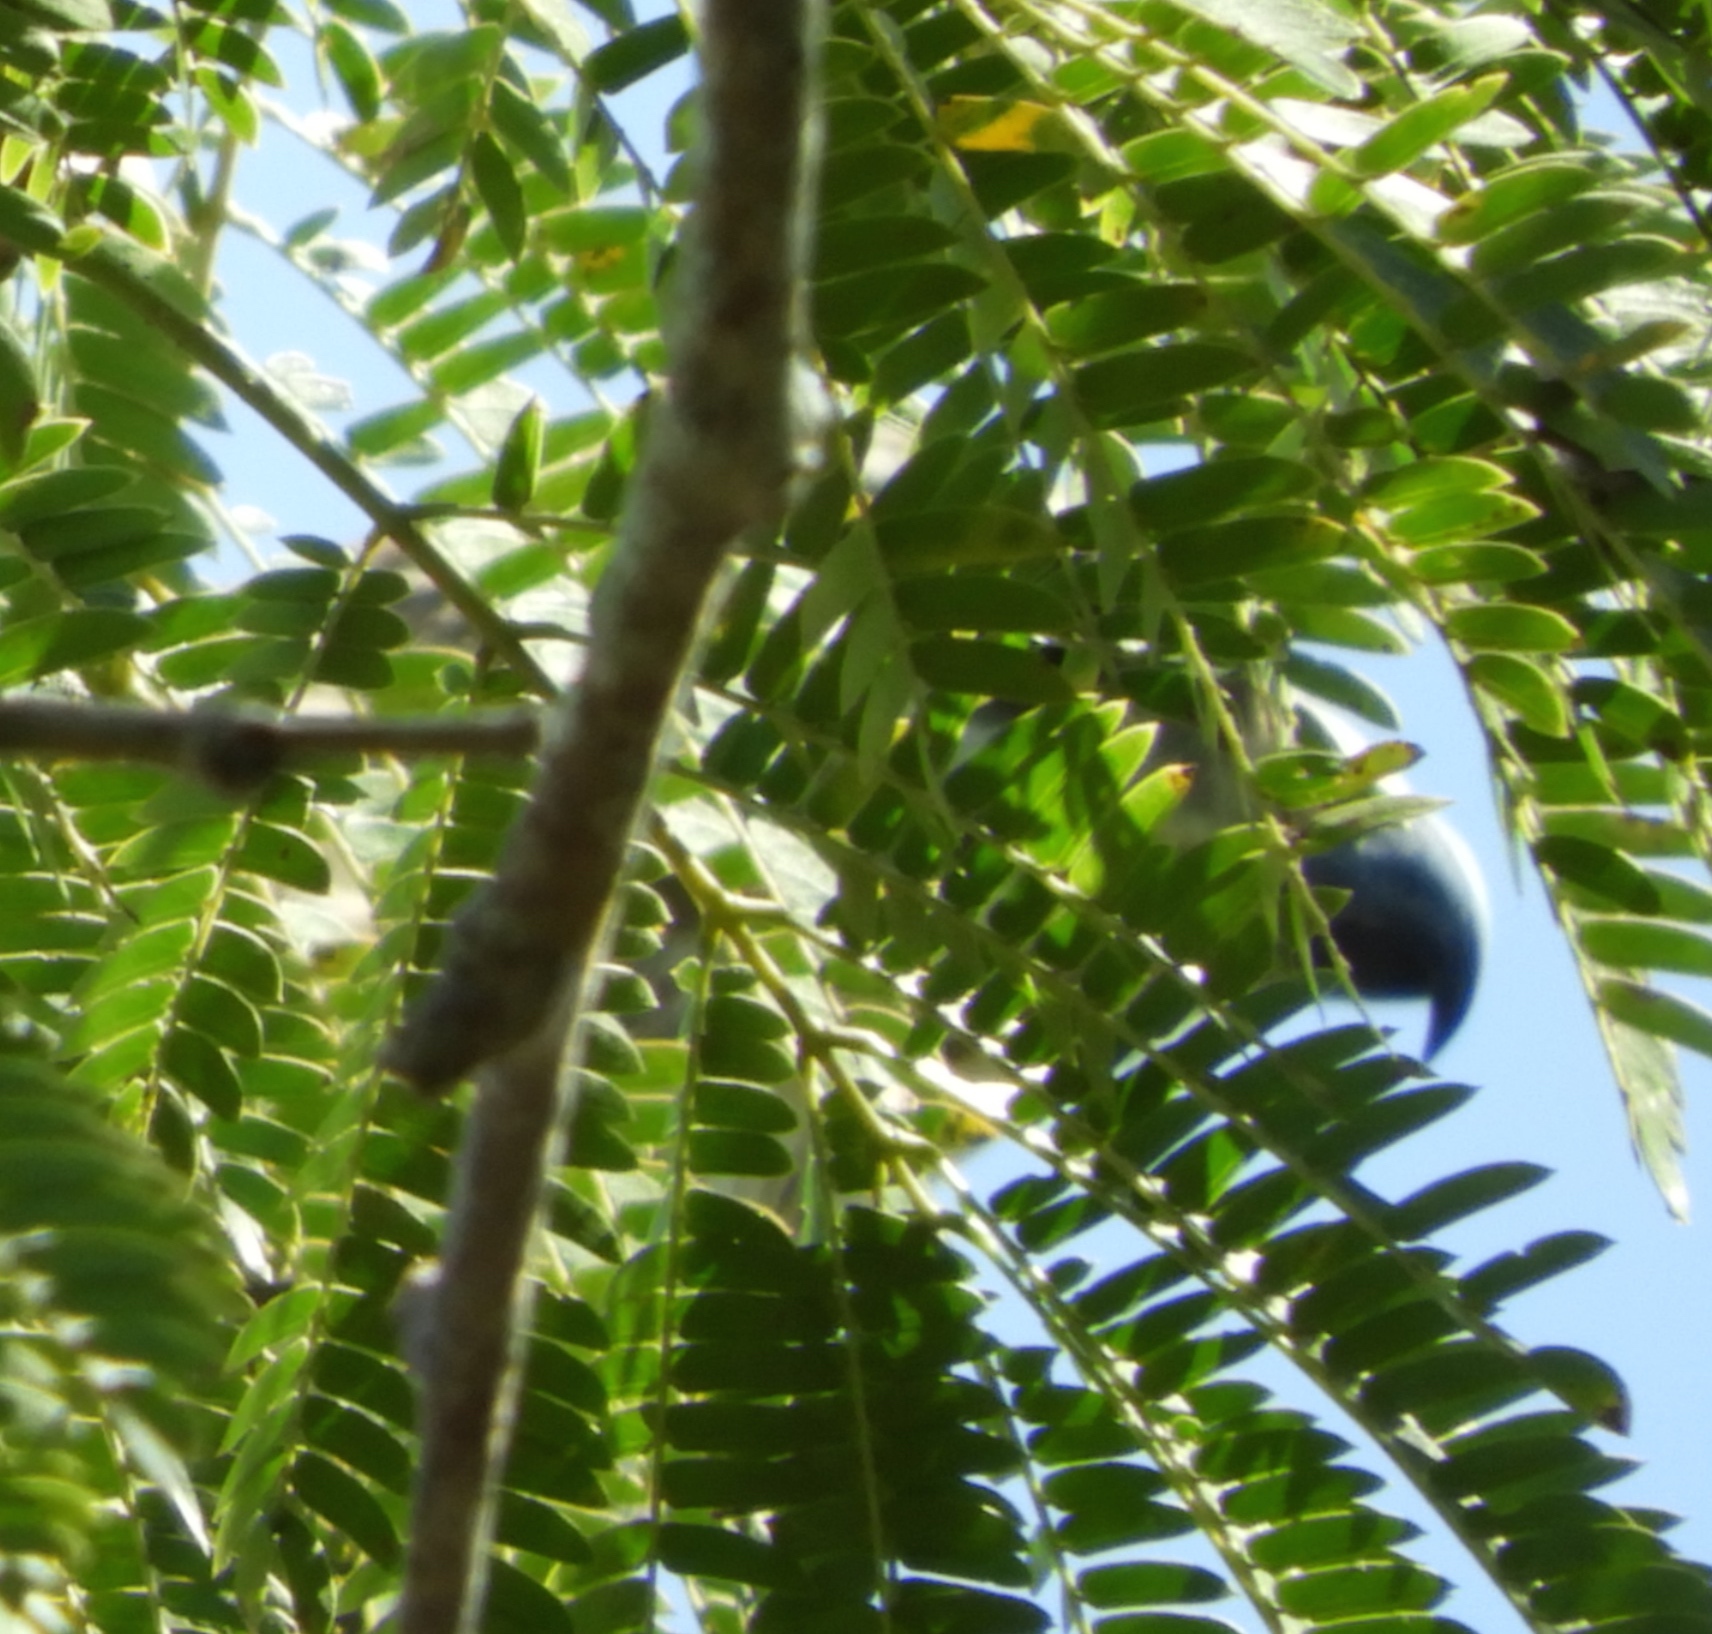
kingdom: Animalia
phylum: Chordata
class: Aves
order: Accipitriformes
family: Accipitridae
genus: Buteo
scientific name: Buteo nitidus
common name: Grey-lined hawk
